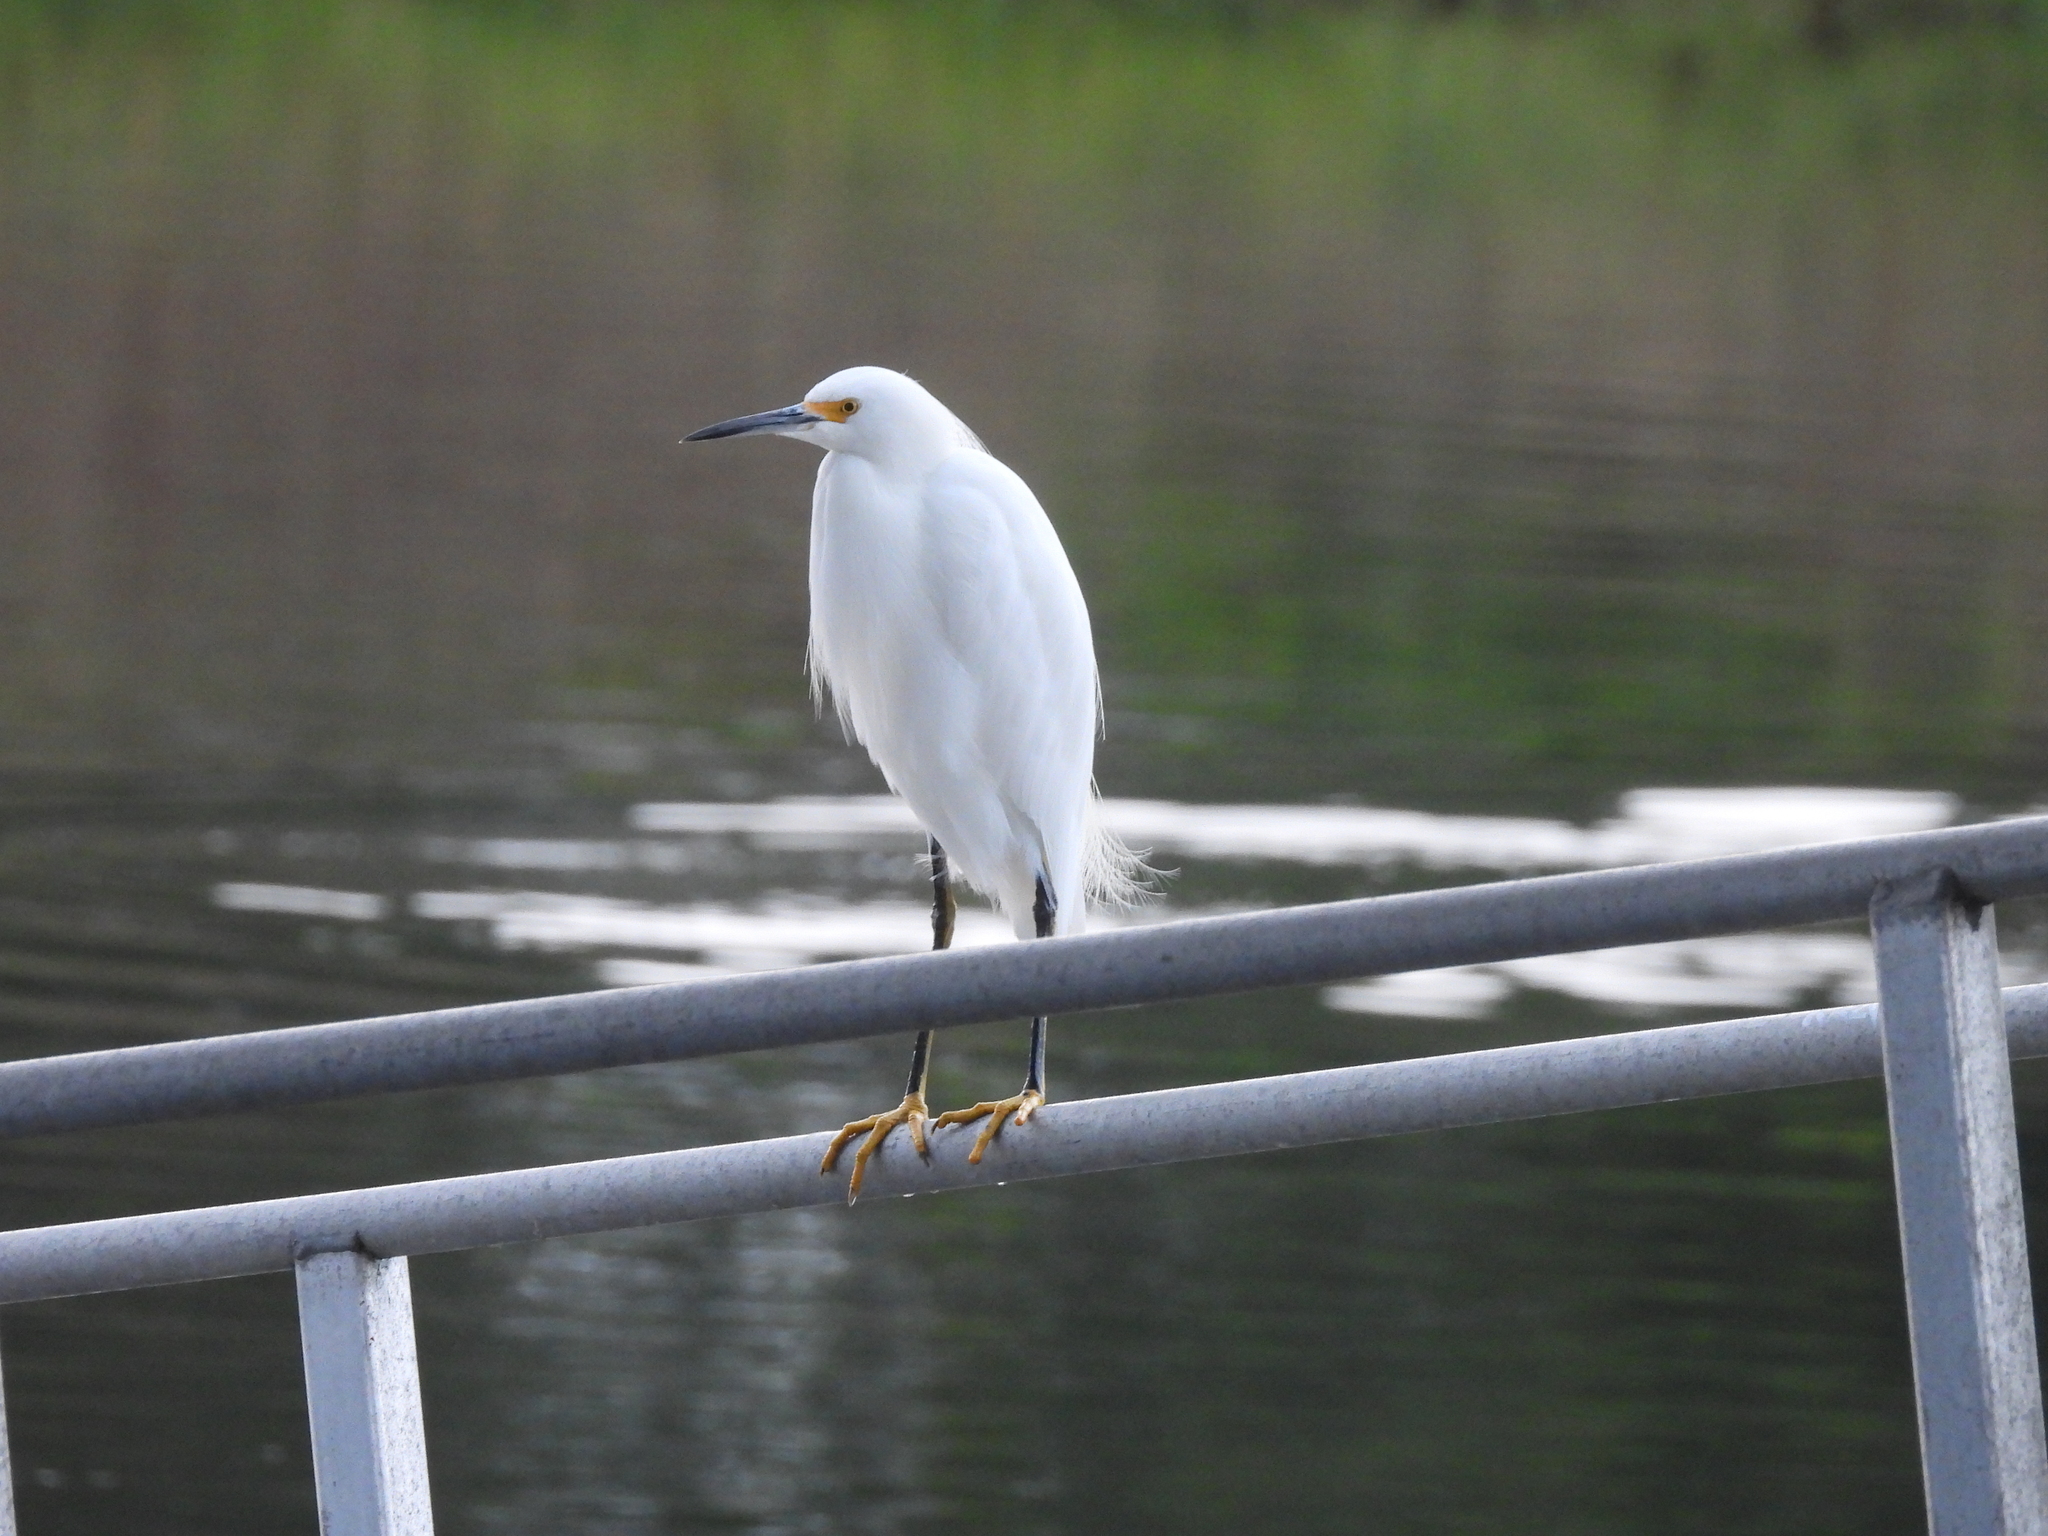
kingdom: Animalia
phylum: Chordata
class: Aves
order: Pelecaniformes
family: Ardeidae
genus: Egretta
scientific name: Egretta thula
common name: Snowy egret
